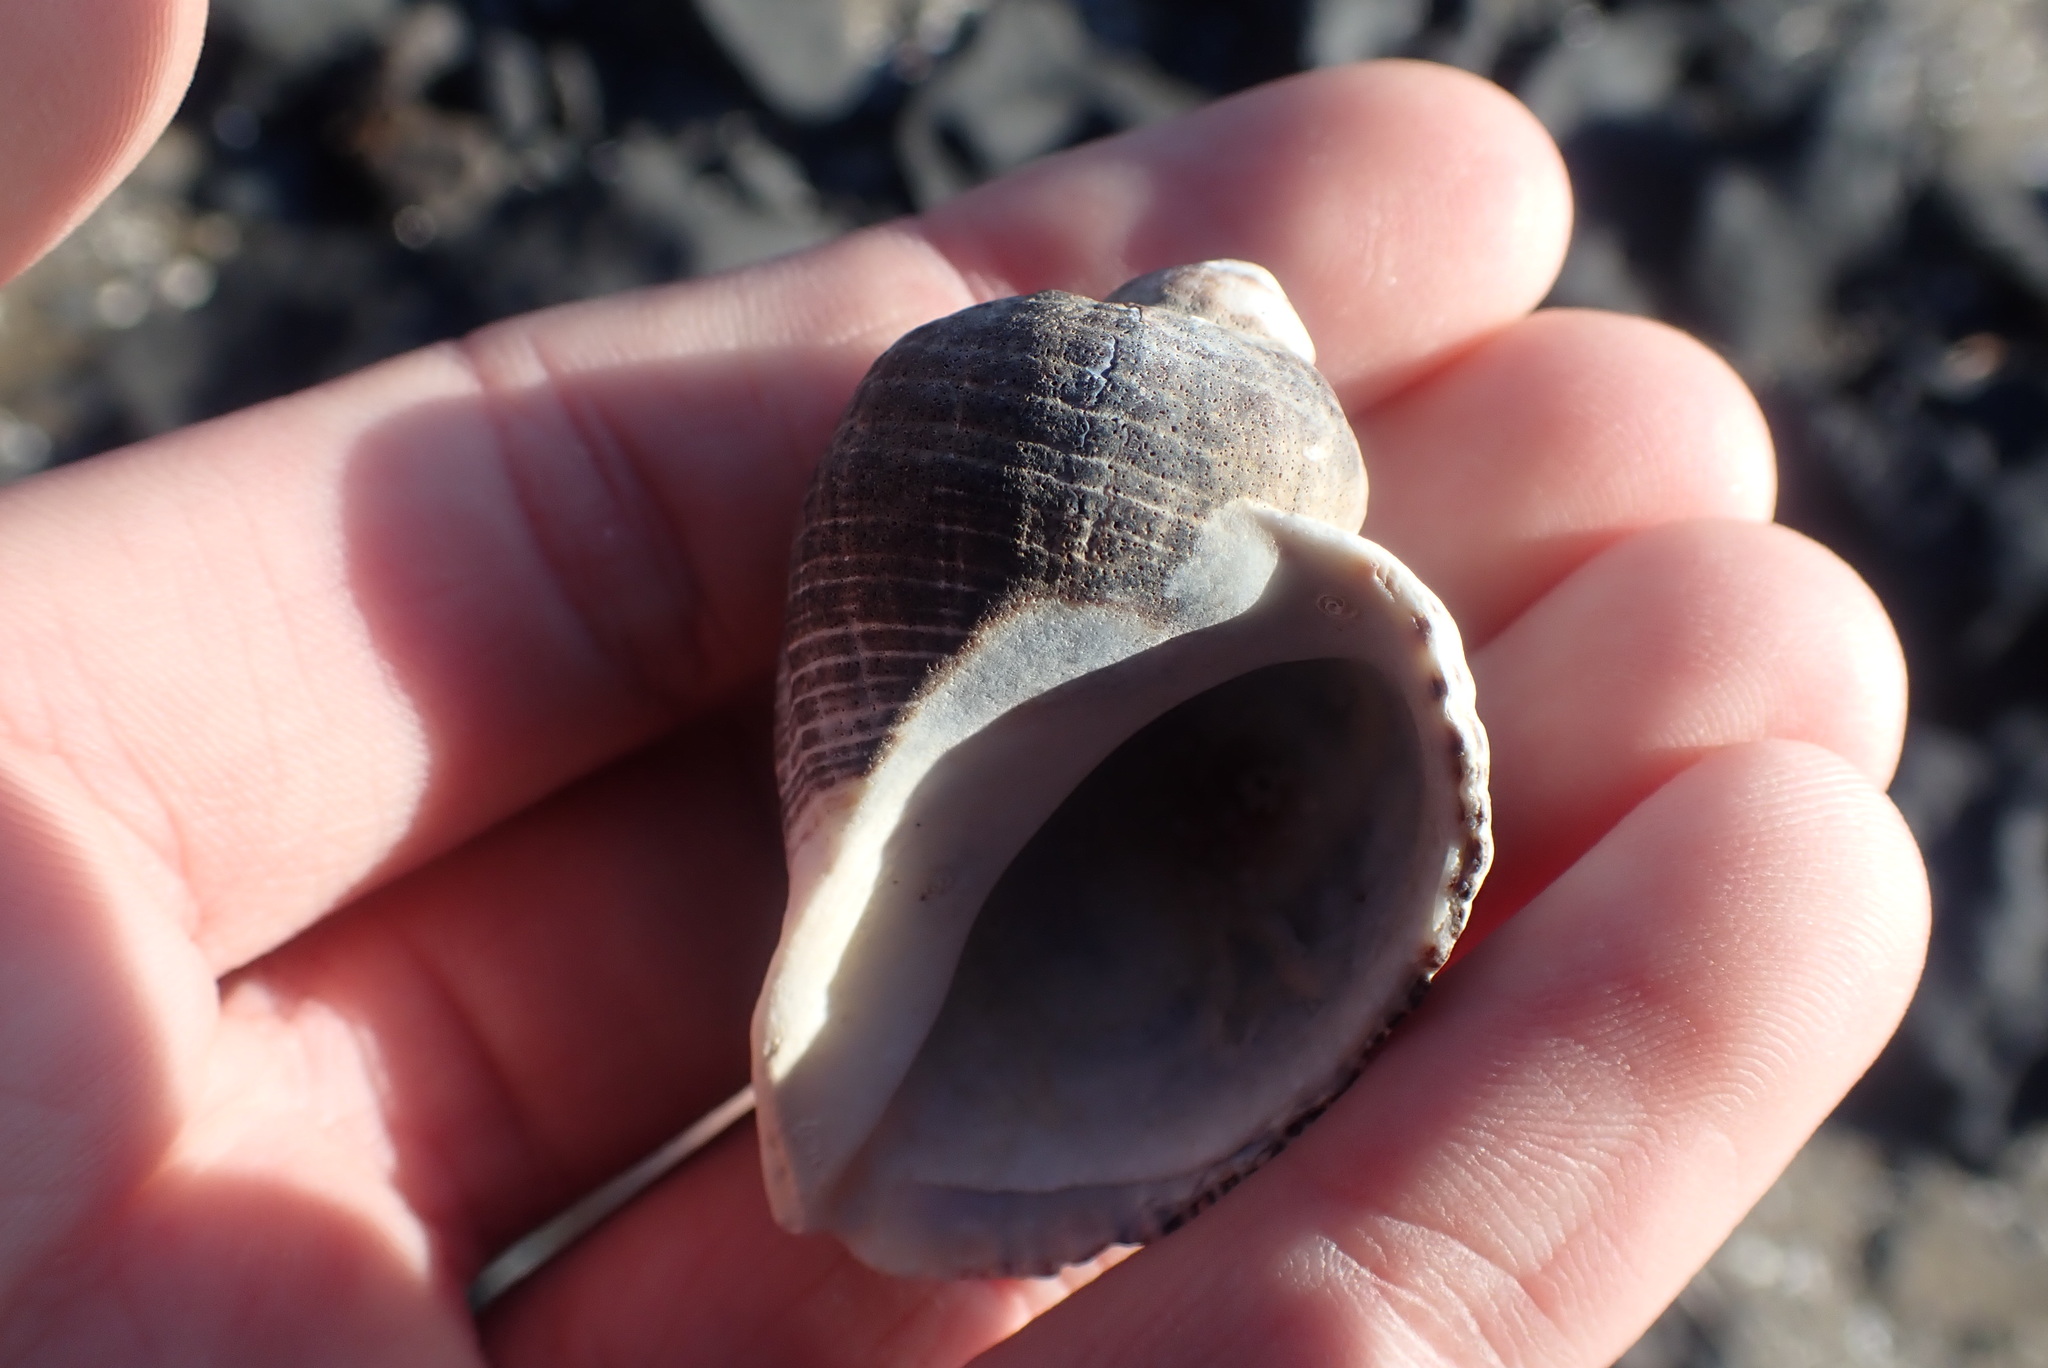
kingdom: Animalia
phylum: Mollusca
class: Gastropoda
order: Neogastropoda
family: Muricidae
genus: Haustrum
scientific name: Haustrum haustorium
